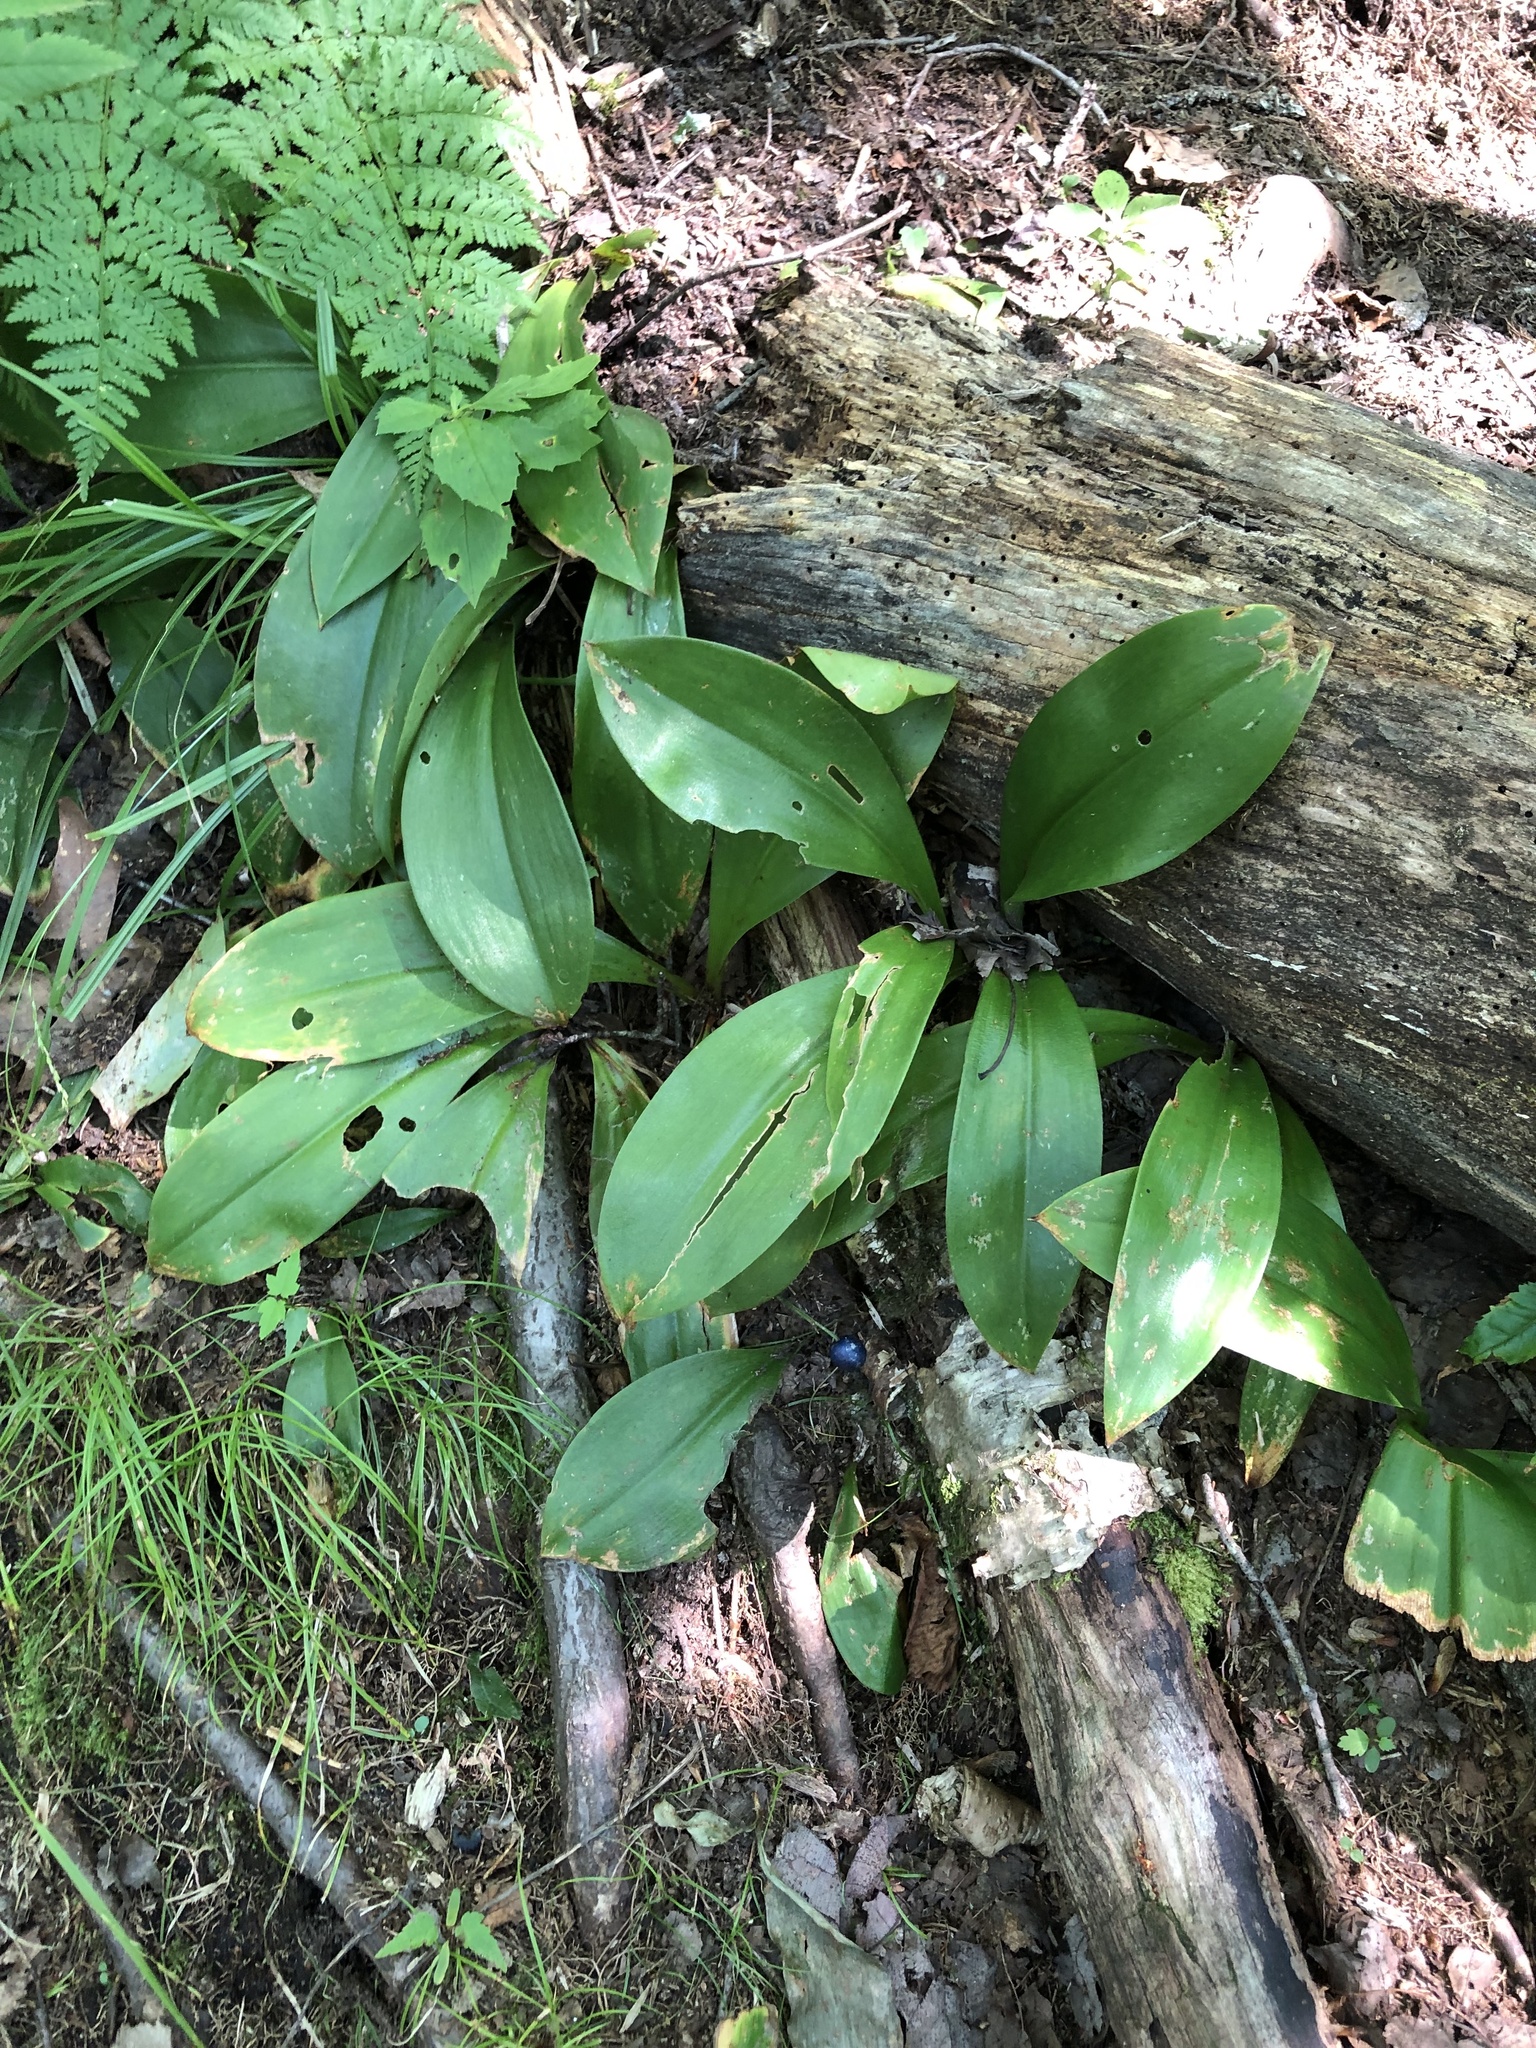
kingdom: Plantae
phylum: Tracheophyta
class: Liliopsida
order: Liliales
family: Liliaceae
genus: Clintonia
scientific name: Clintonia borealis
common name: Yellow clintonia
